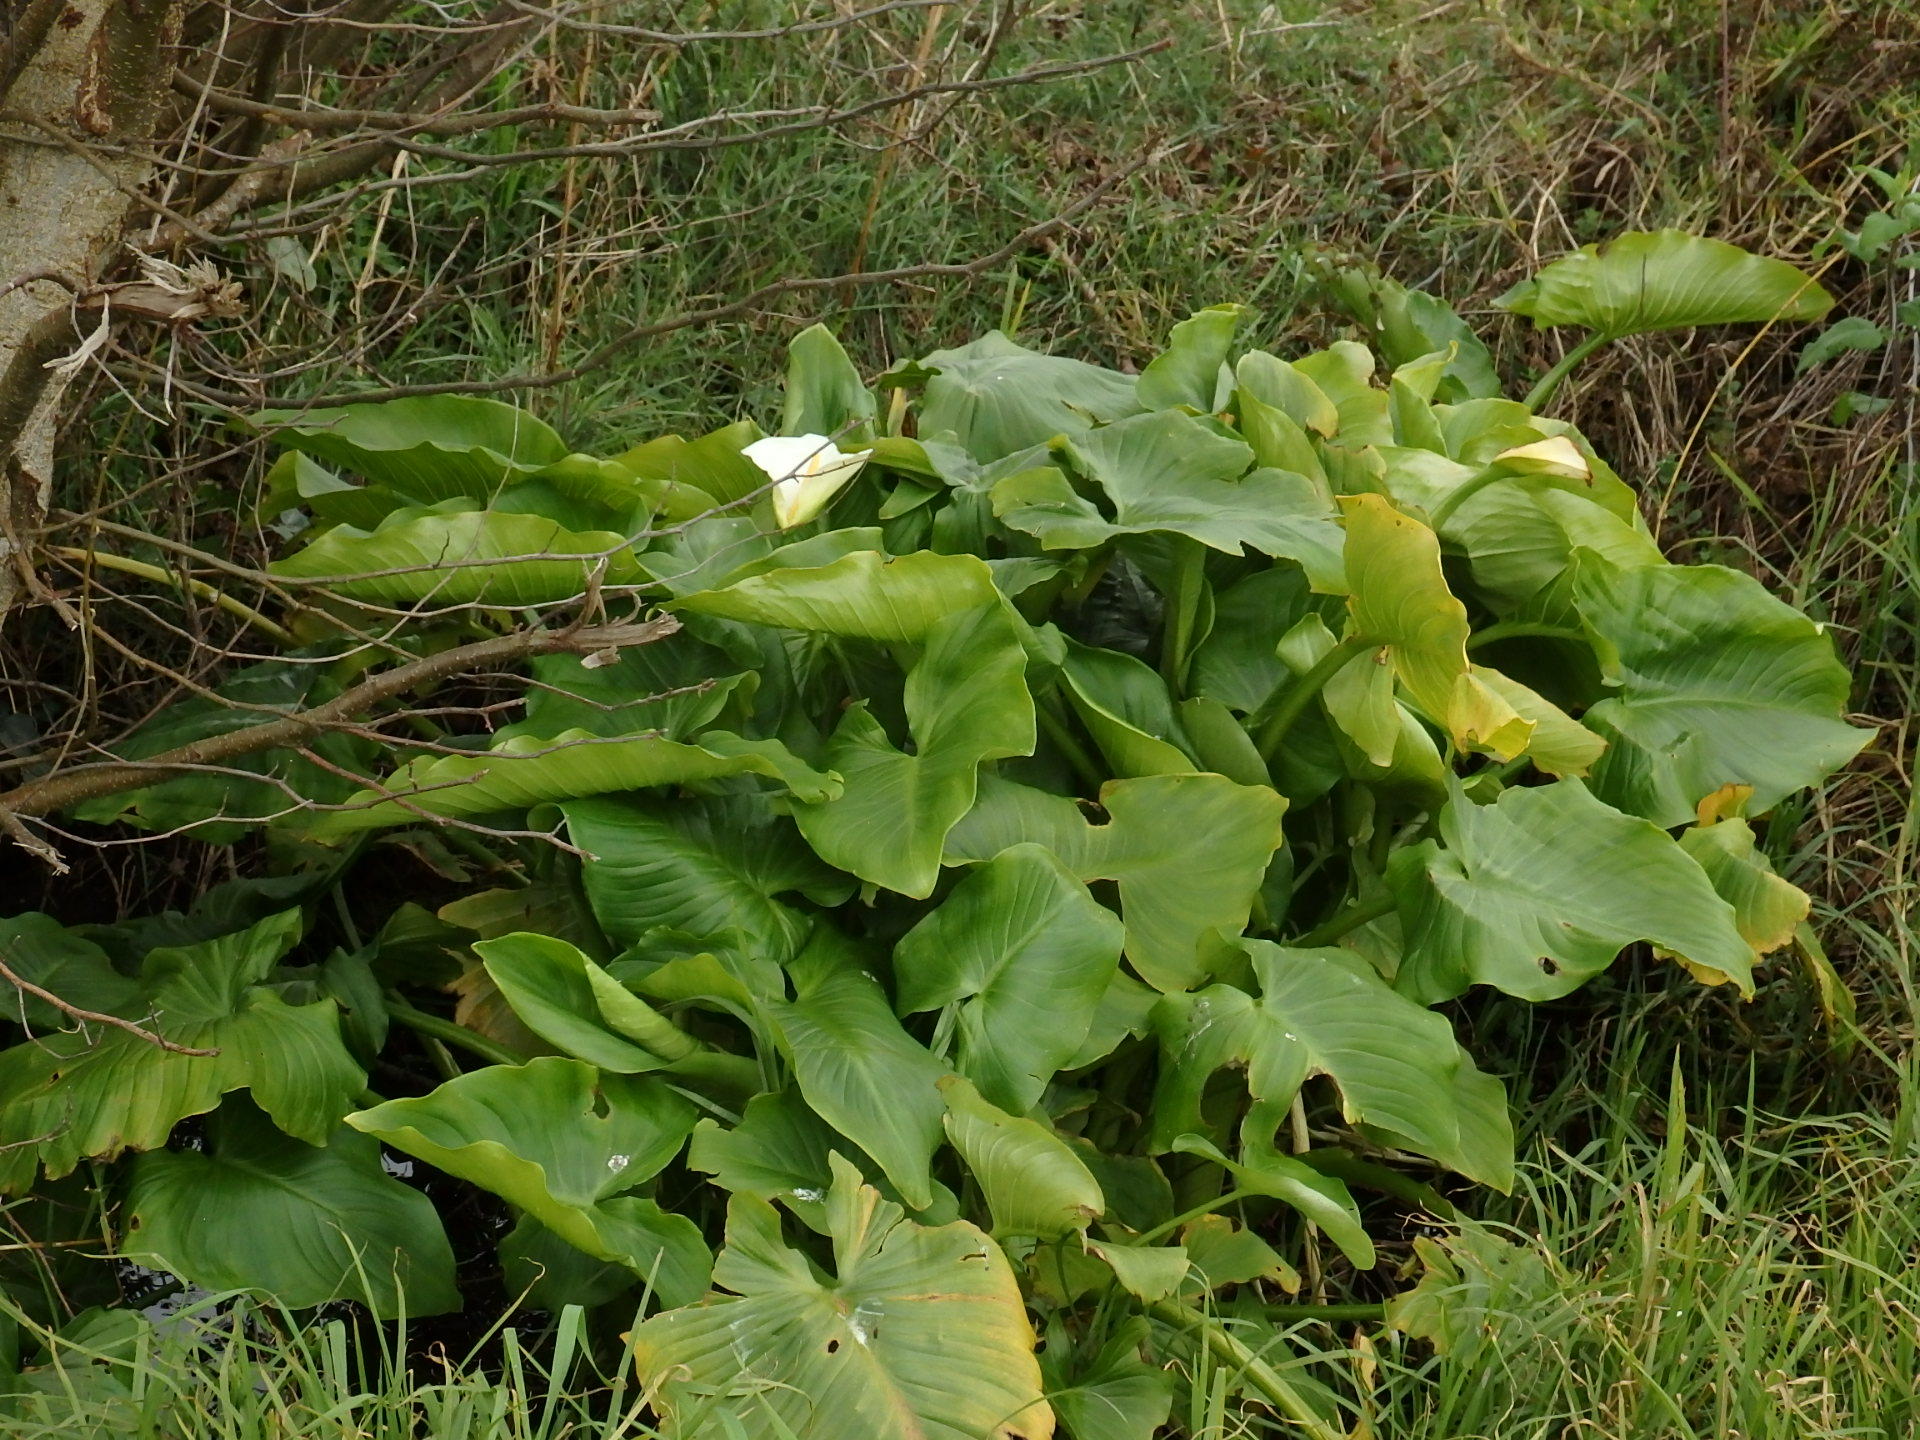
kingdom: Plantae
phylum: Tracheophyta
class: Liliopsida
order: Alismatales
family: Araceae
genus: Zantedeschia
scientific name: Zantedeschia aethiopica
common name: Altar-lily
